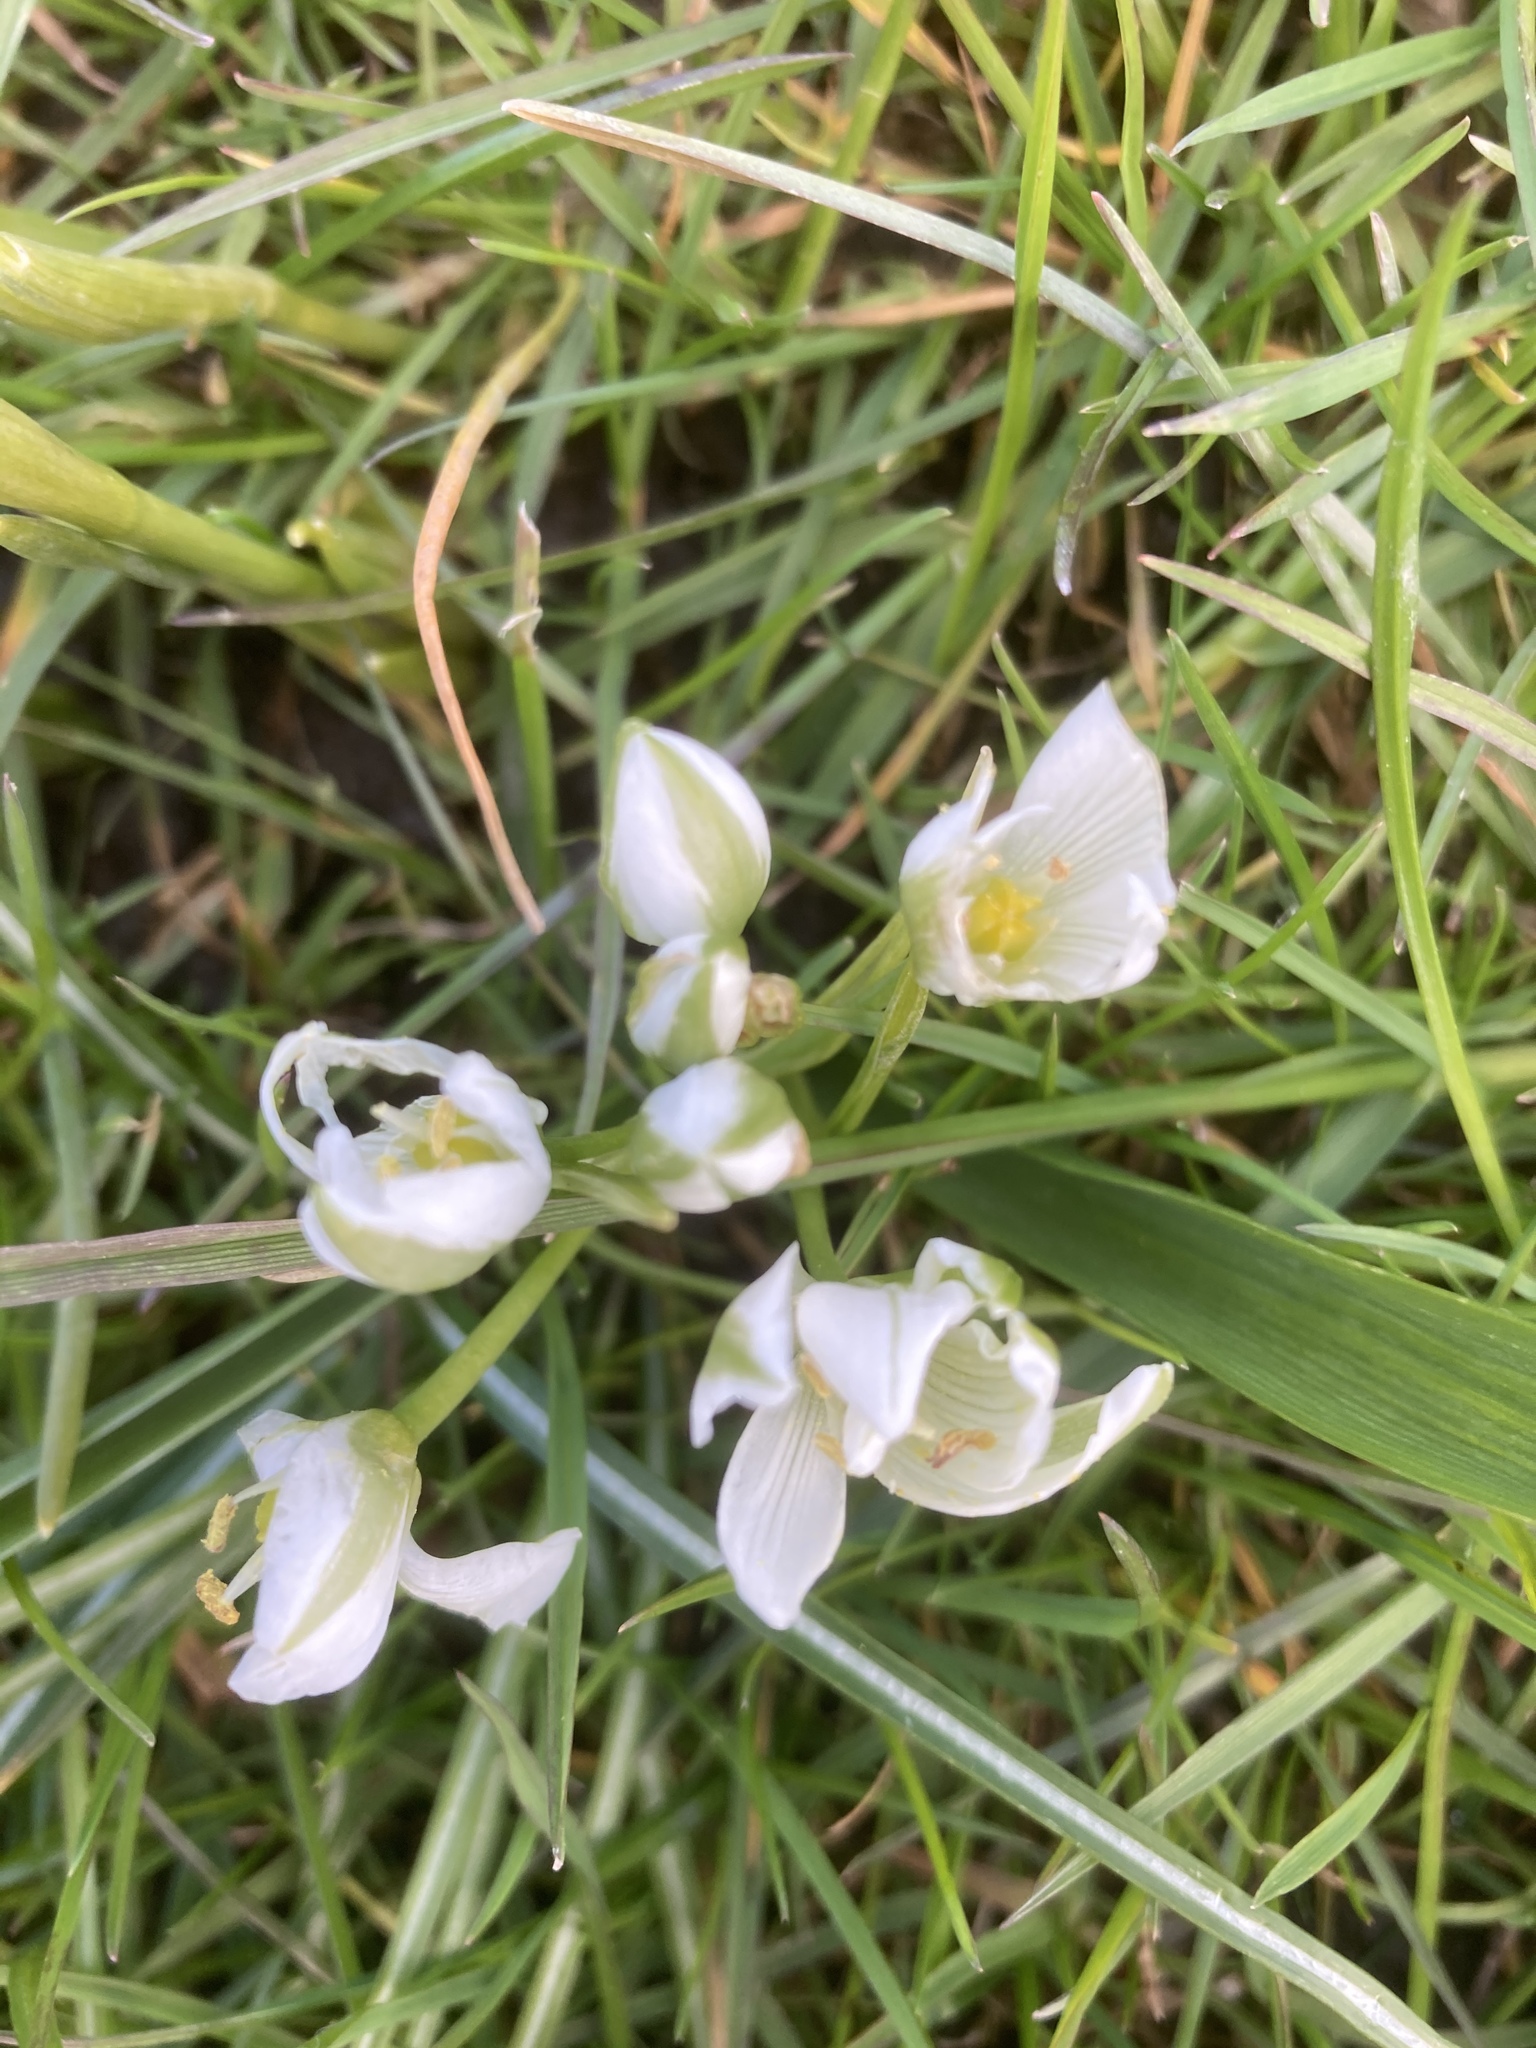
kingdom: Plantae
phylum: Tracheophyta
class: Liliopsida
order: Asparagales
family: Asparagaceae
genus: Ornithogalum
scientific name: Ornithogalum umbellatum
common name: Garden star-of-bethlehem
